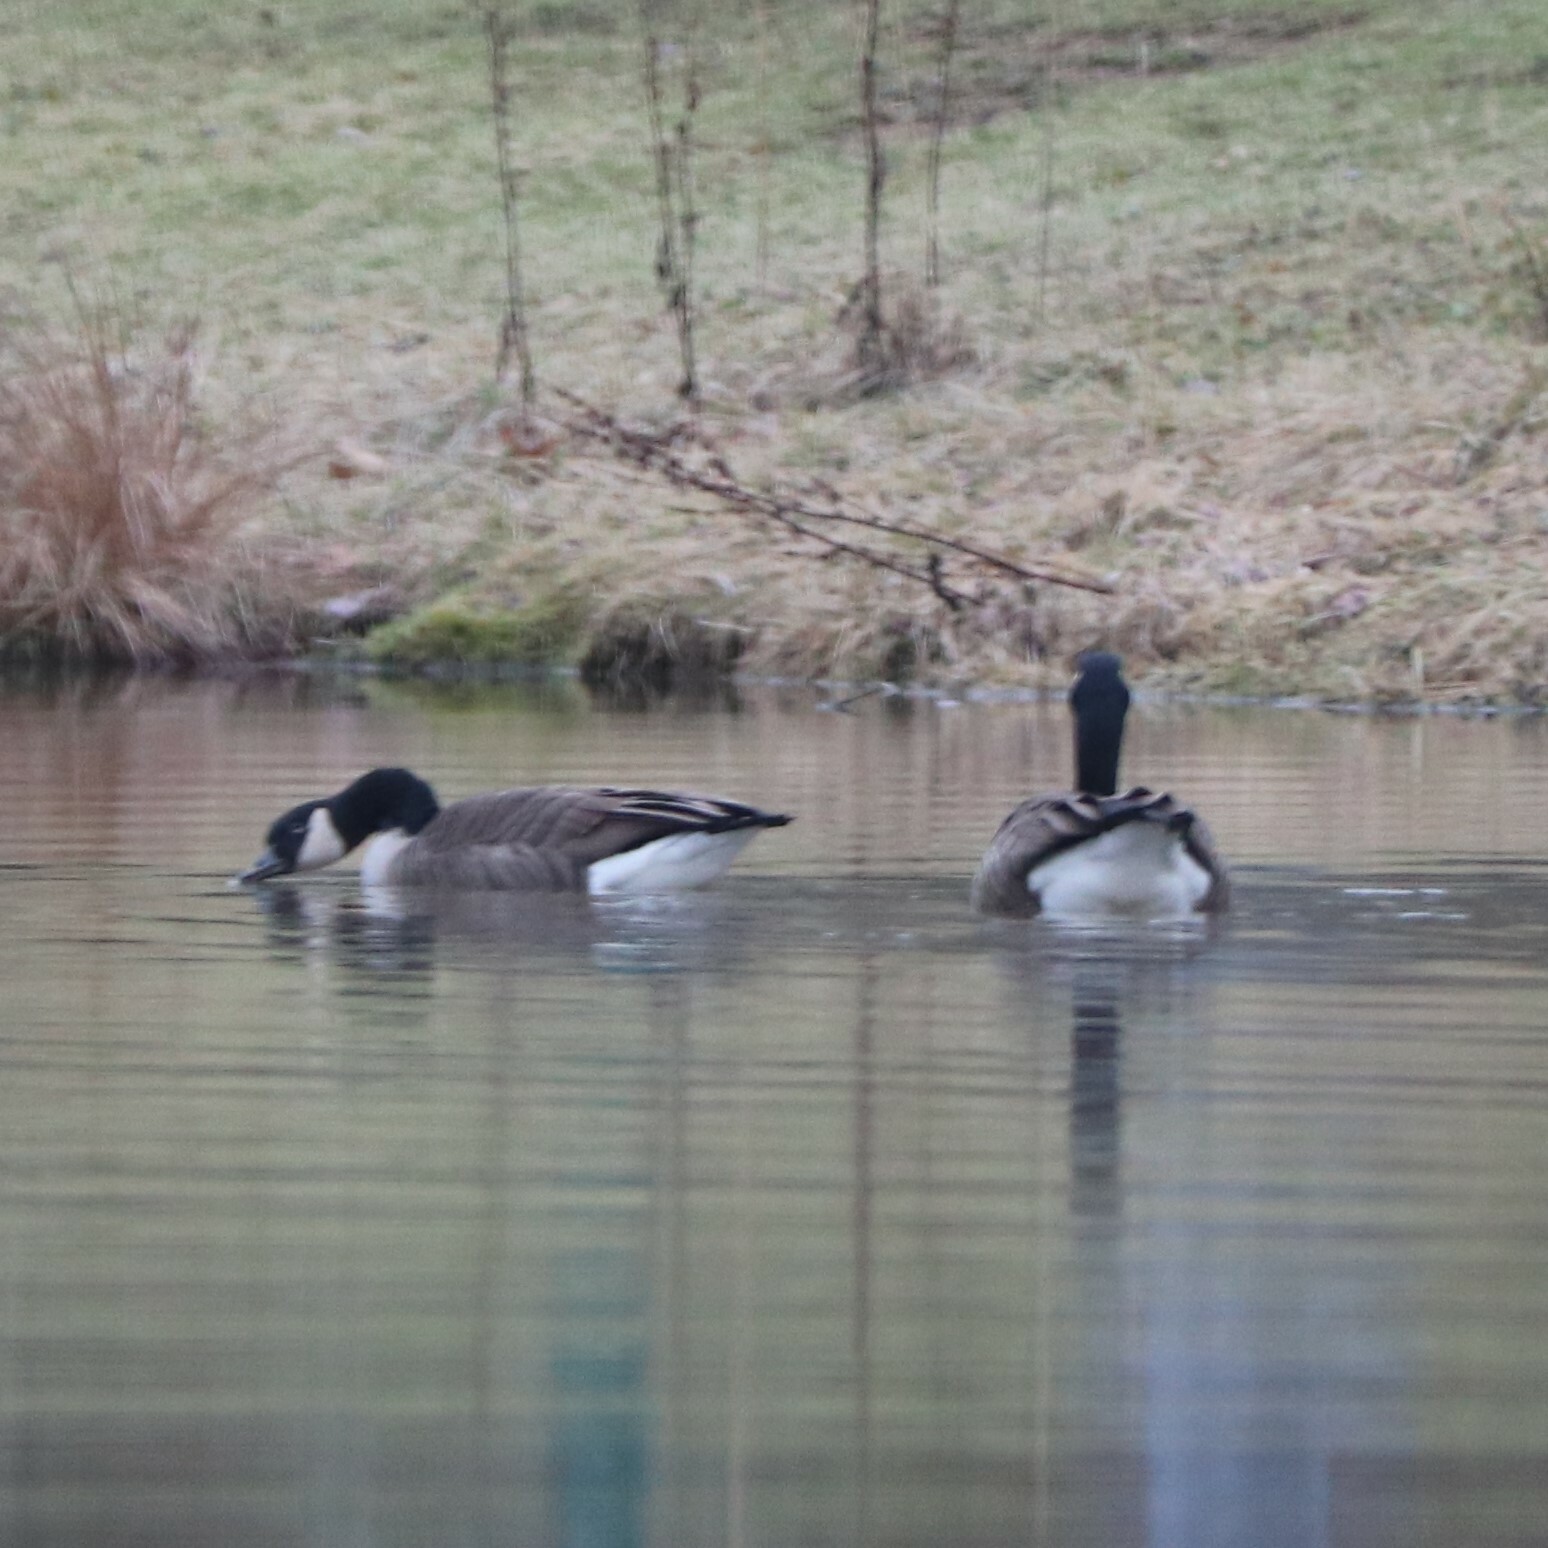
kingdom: Animalia
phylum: Chordata
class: Aves
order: Anseriformes
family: Anatidae
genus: Branta
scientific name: Branta canadensis
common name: Canada goose
